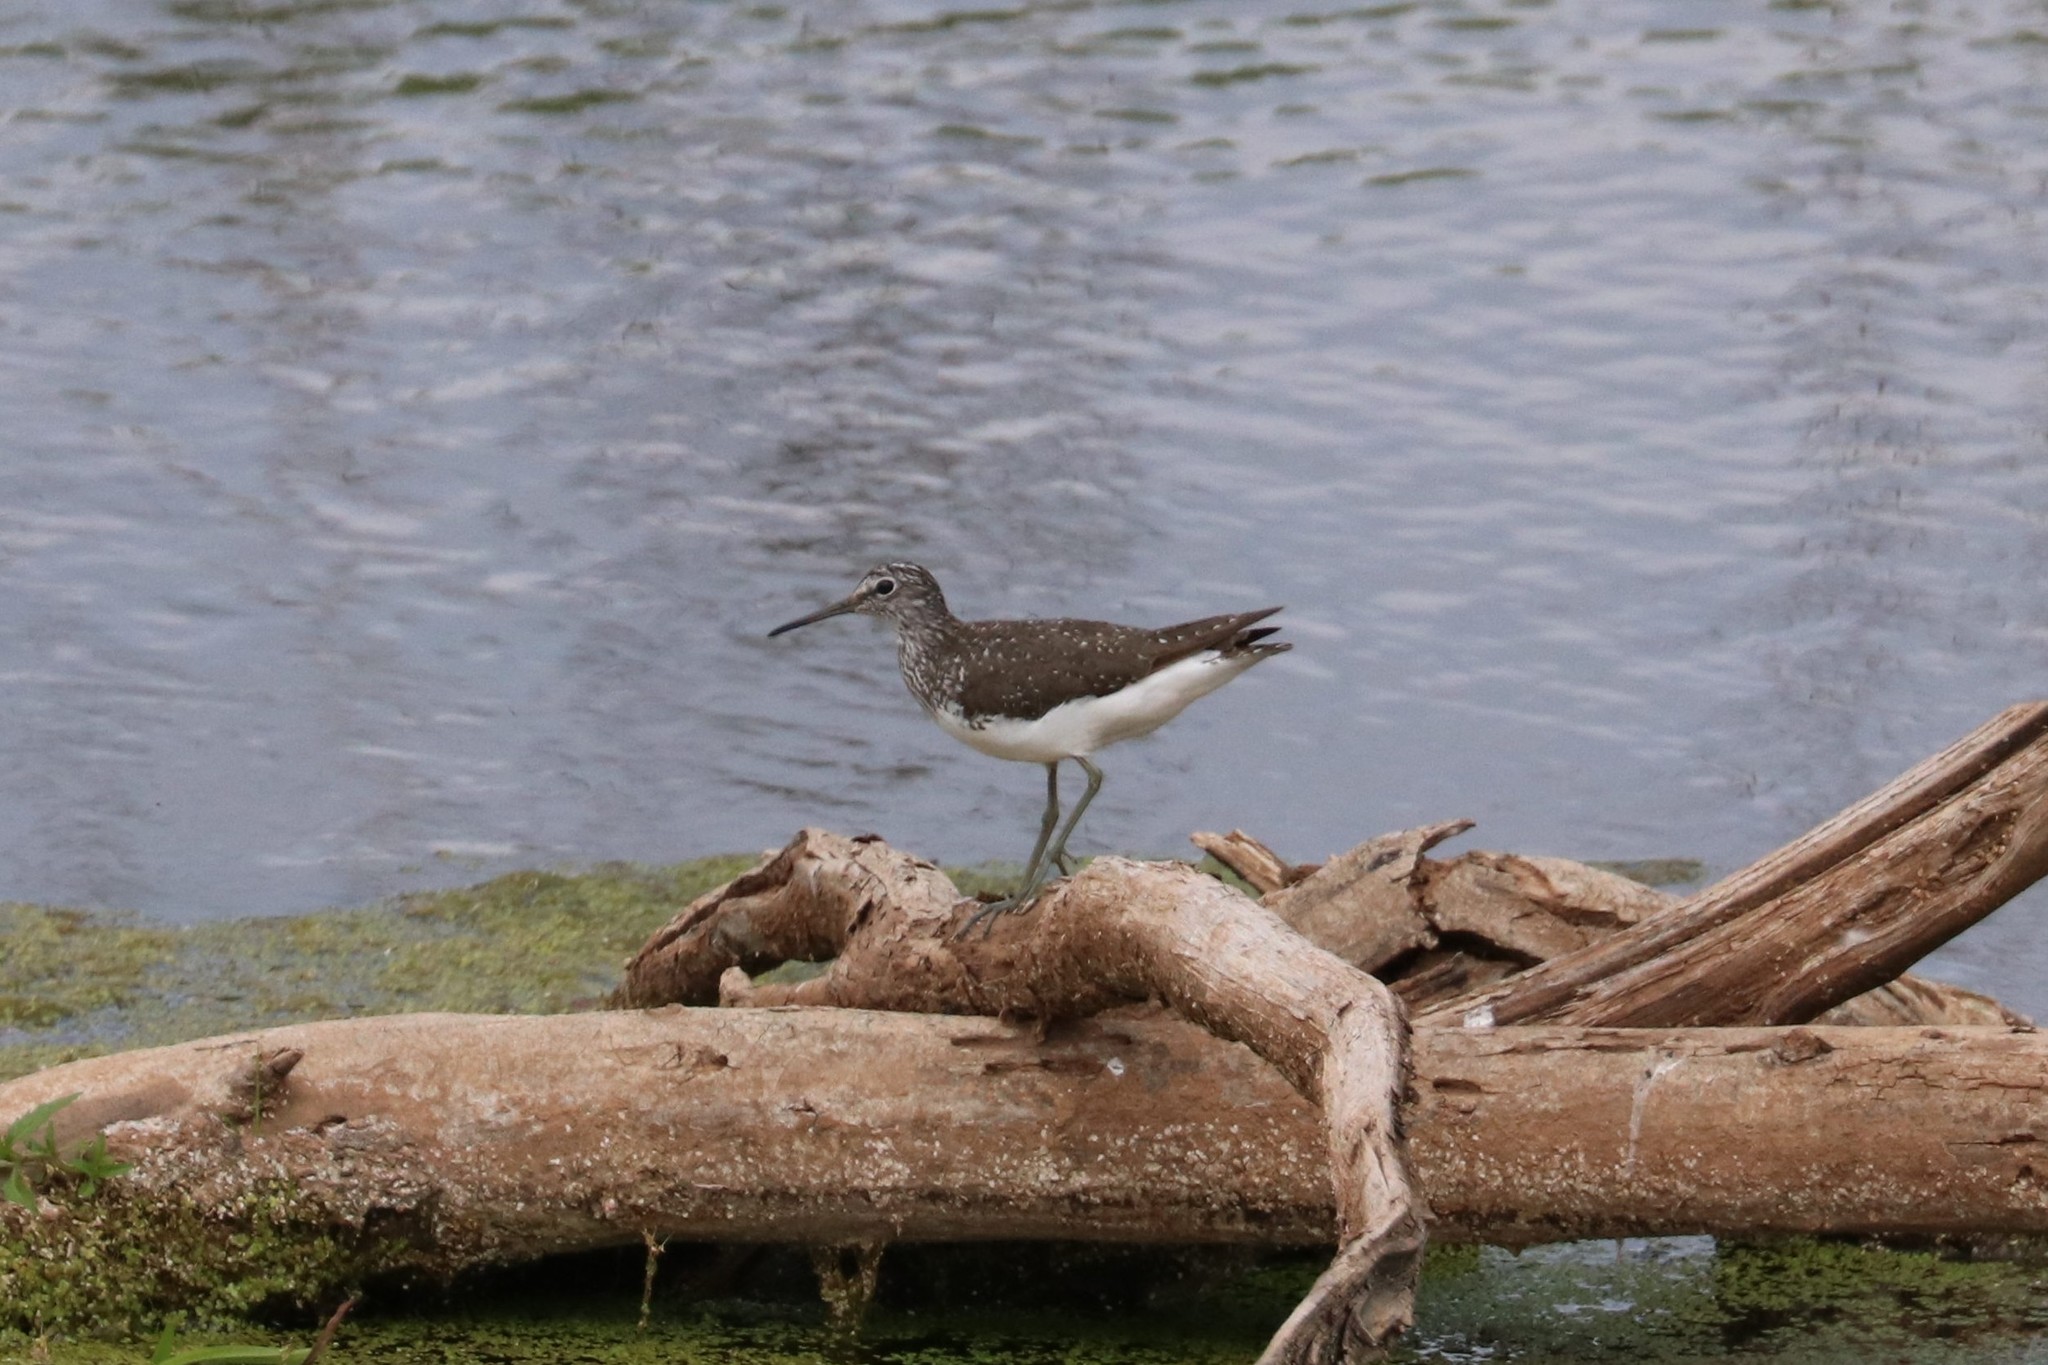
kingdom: Animalia
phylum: Chordata
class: Aves
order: Charadriiformes
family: Scolopacidae
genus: Tringa
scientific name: Tringa ochropus
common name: Green sandpiper
